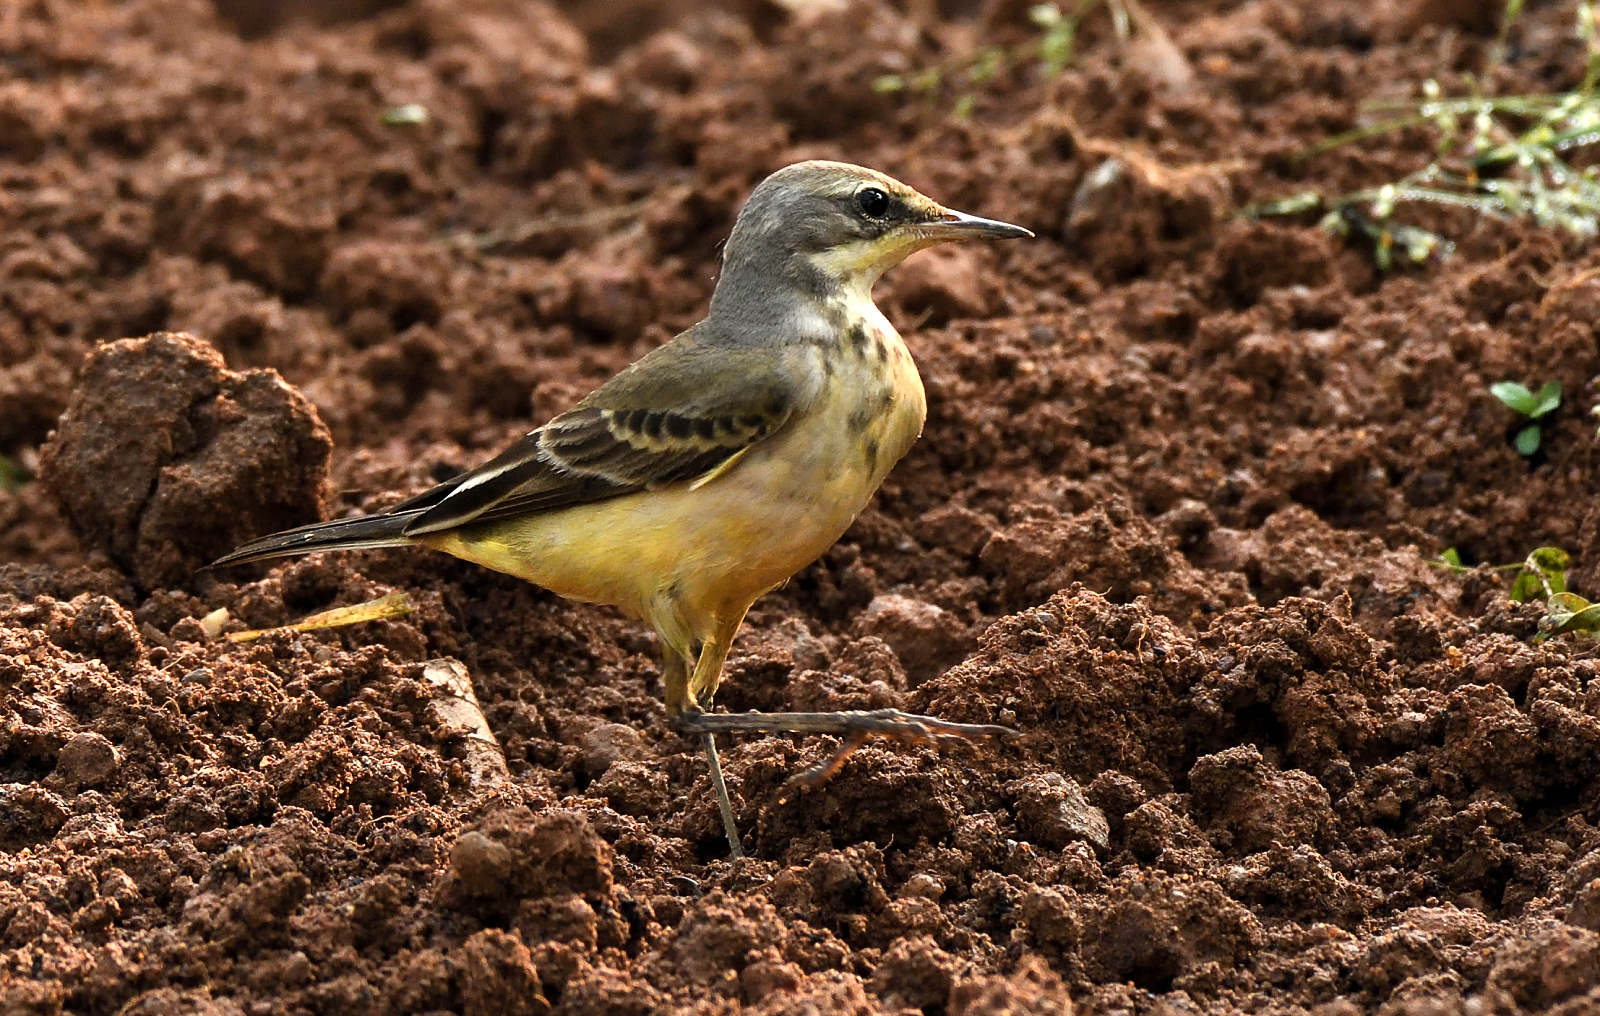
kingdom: Animalia
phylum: Chordata
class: Aves
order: Passeriformes
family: Motacillidae
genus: Motacilla
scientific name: Motacilla flava
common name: Western yellow wagtail
